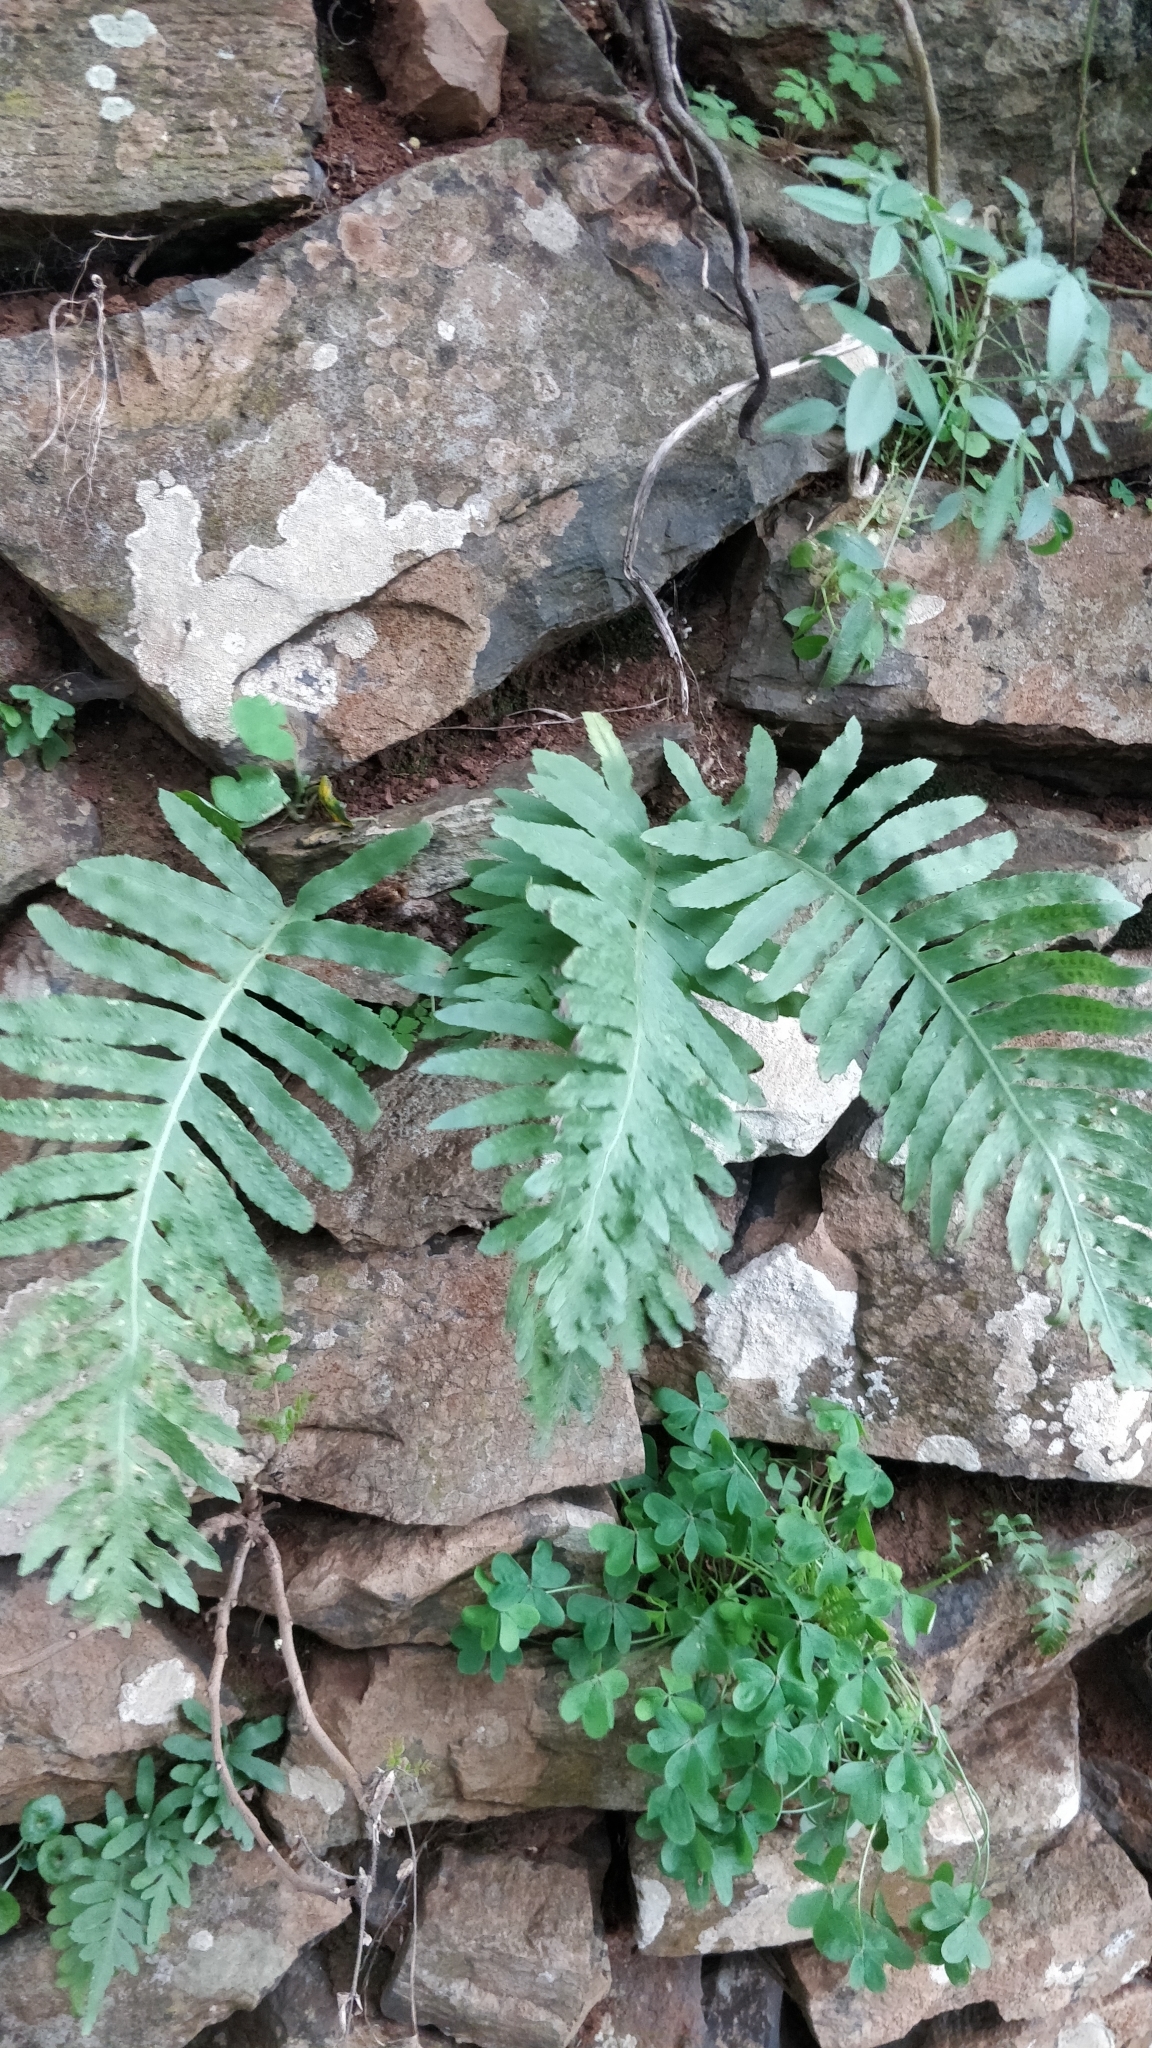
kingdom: Plantae
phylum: Tracheophyta
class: Polypodiopsida
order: Polypodiales
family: Polypodiaceae
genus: Polypodium
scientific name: Polypodium macaronesicum
